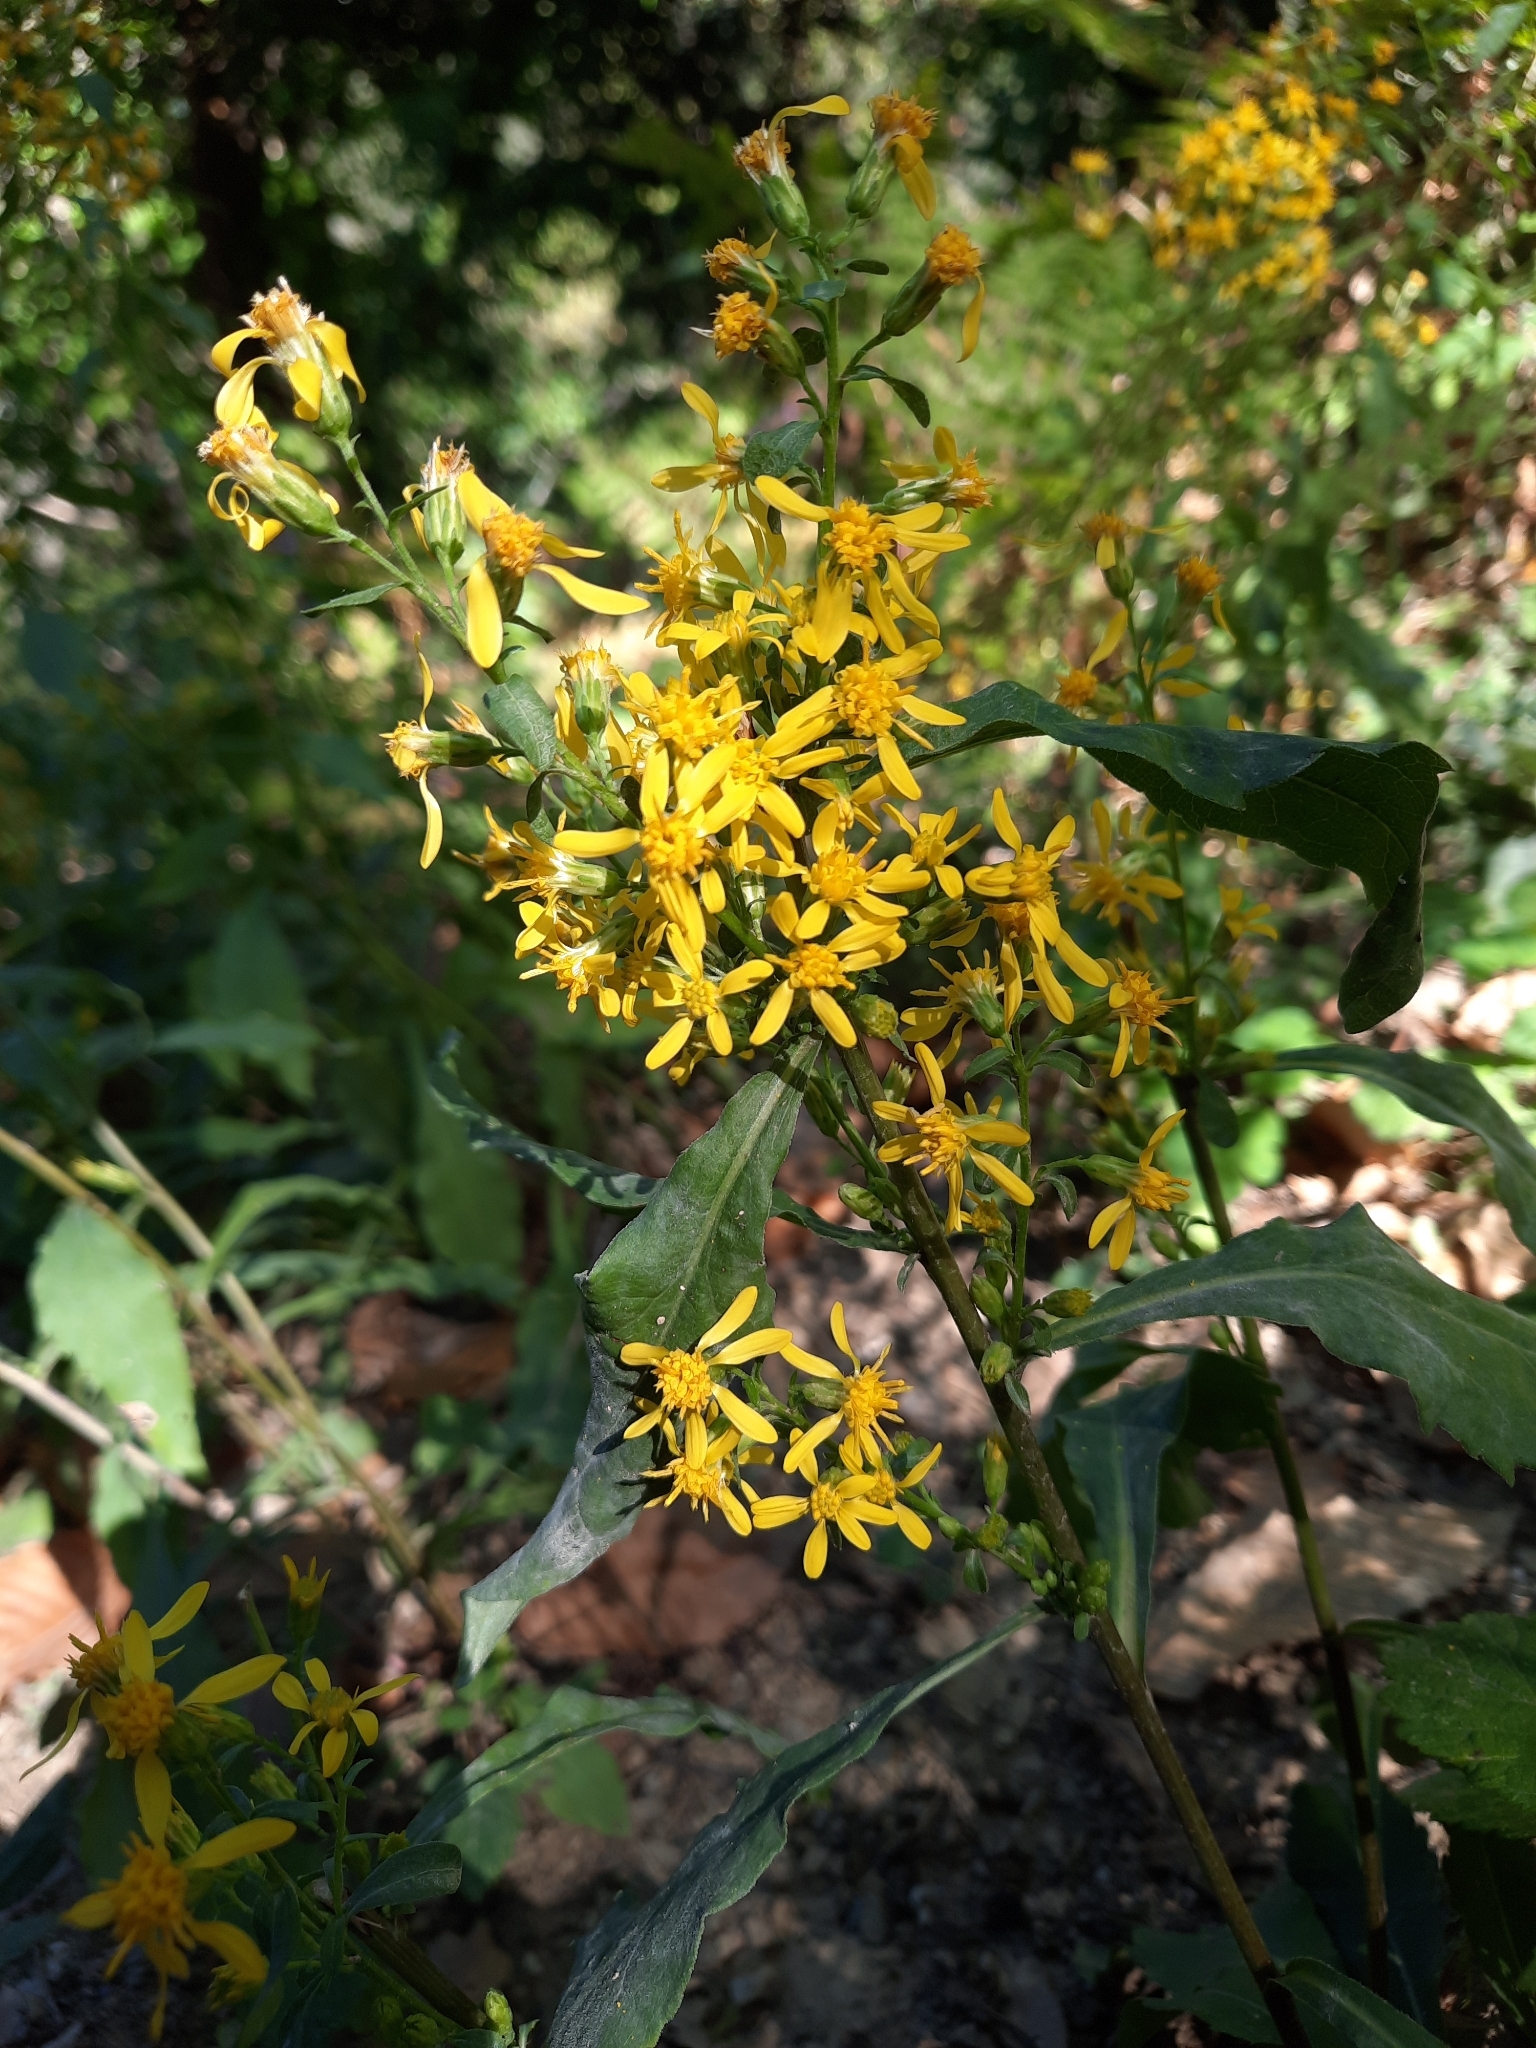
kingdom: Plantae
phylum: Tracheophyta
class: Magnoliopsida
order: Asterales
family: Asteraceae
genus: Solidago
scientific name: Solidago virgaurea
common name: Goldenrod
